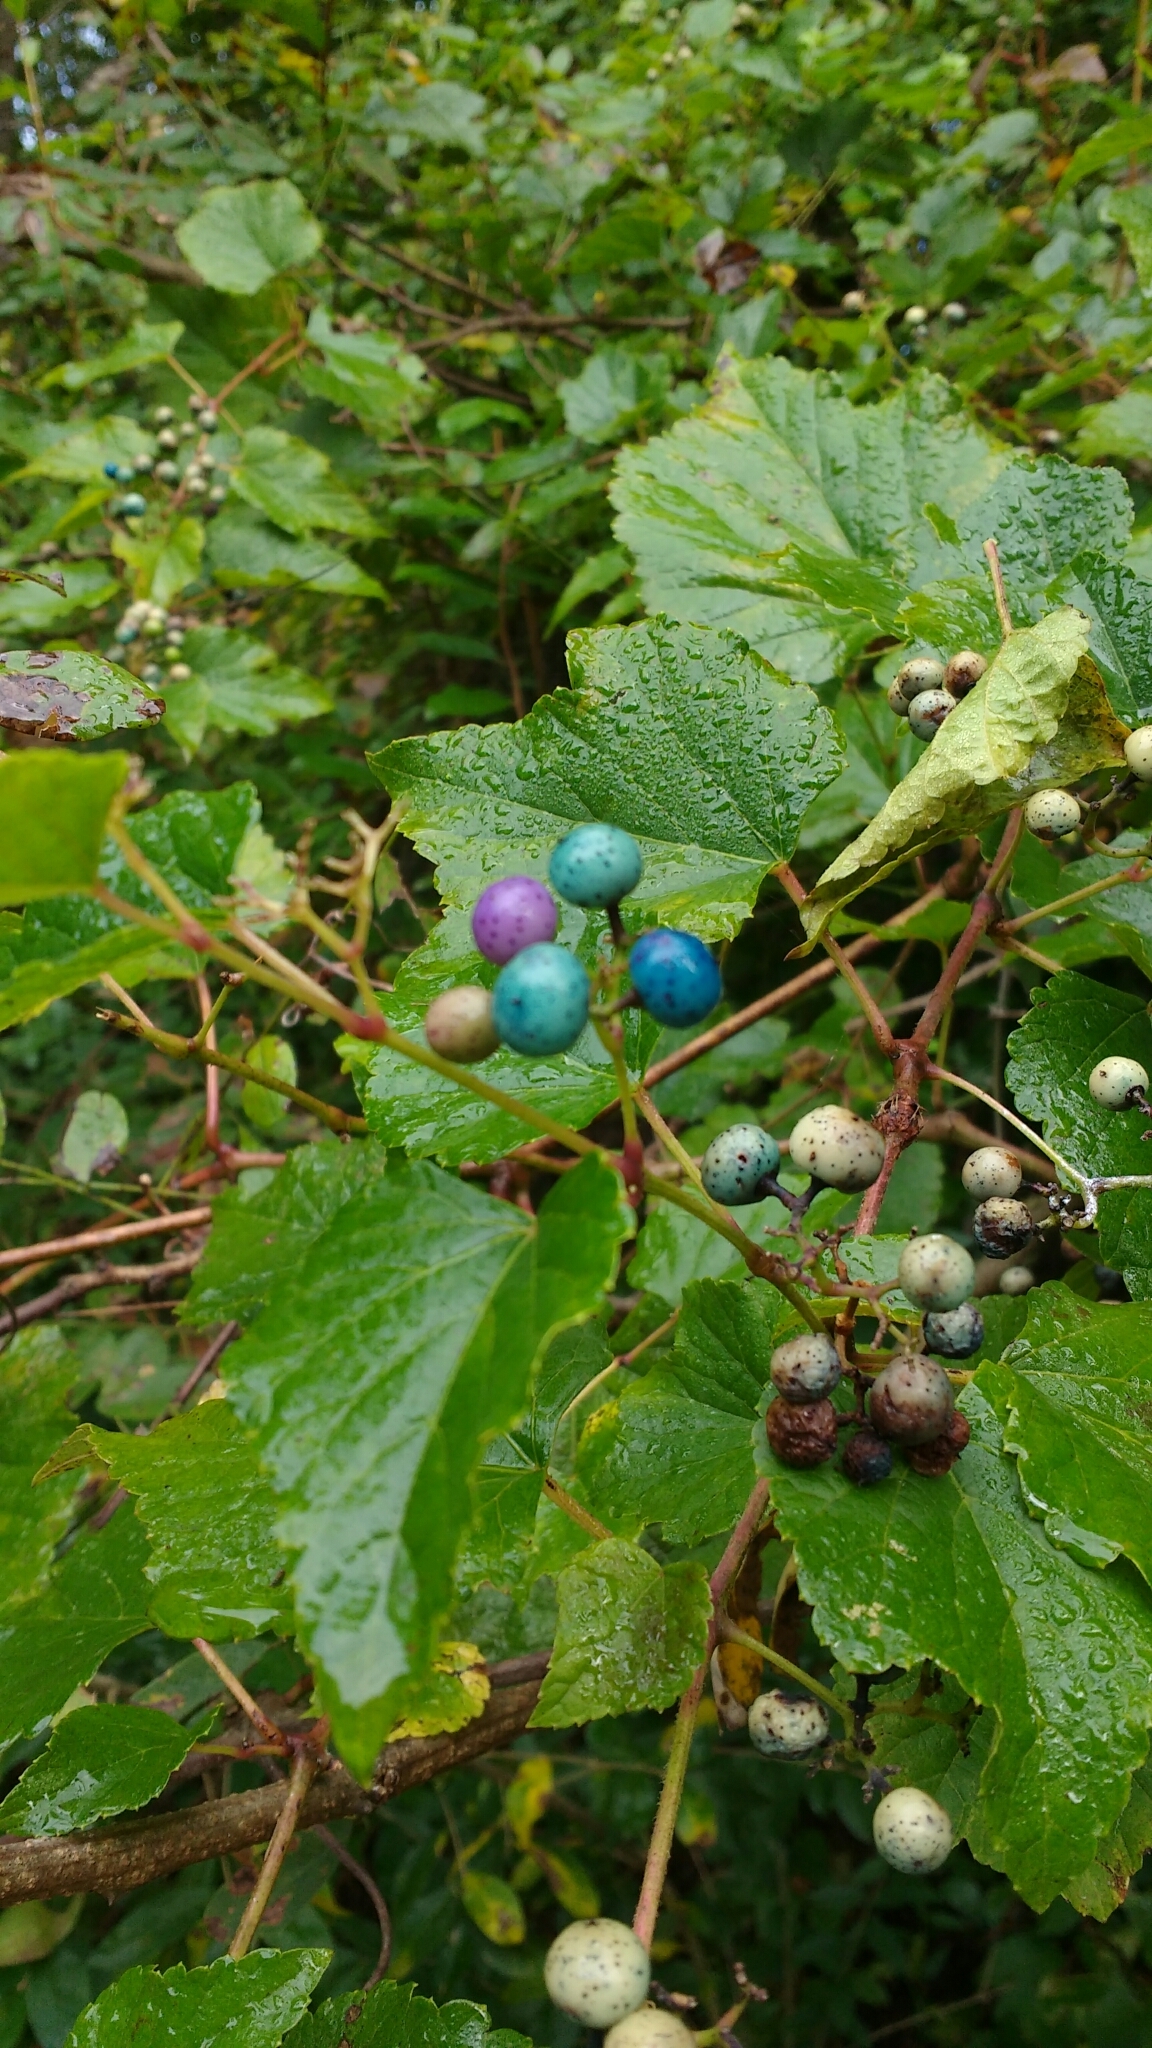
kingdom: Plantae
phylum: Tracheophyta
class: Magnoliopsida
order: Vitales
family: Vitaceae
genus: Ampelopsis
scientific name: Ampelopsis glandulosa
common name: Amur peppervine
